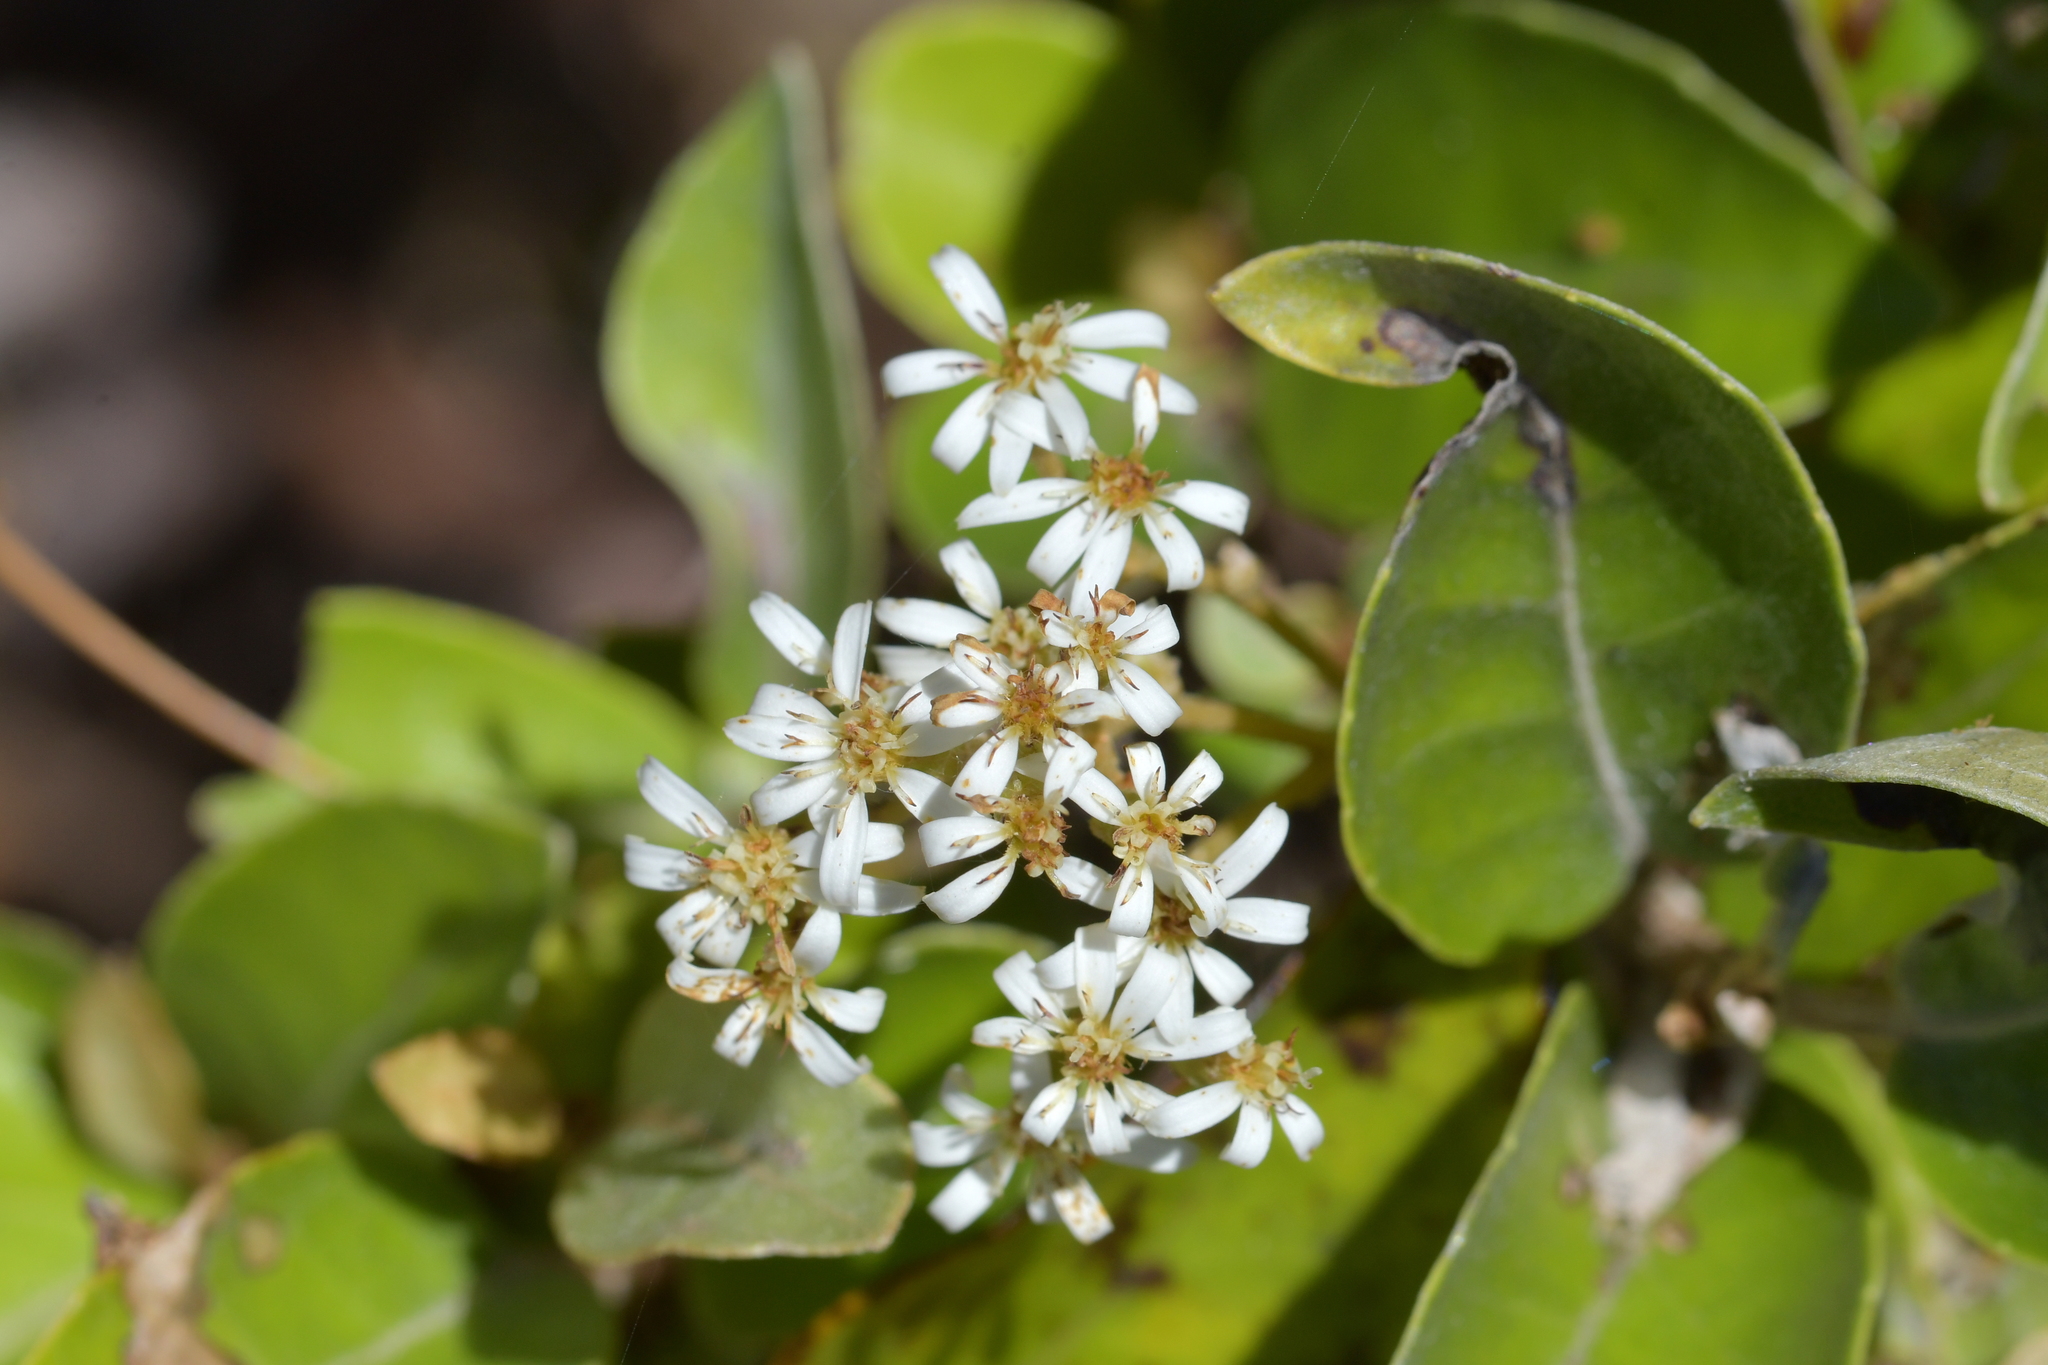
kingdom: Plantae
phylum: Tracheophyta
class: Magnoliopsida
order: Asterales
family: Asteraceae
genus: Olearia
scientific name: Olearia arborescens
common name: Glossy tree daisy
